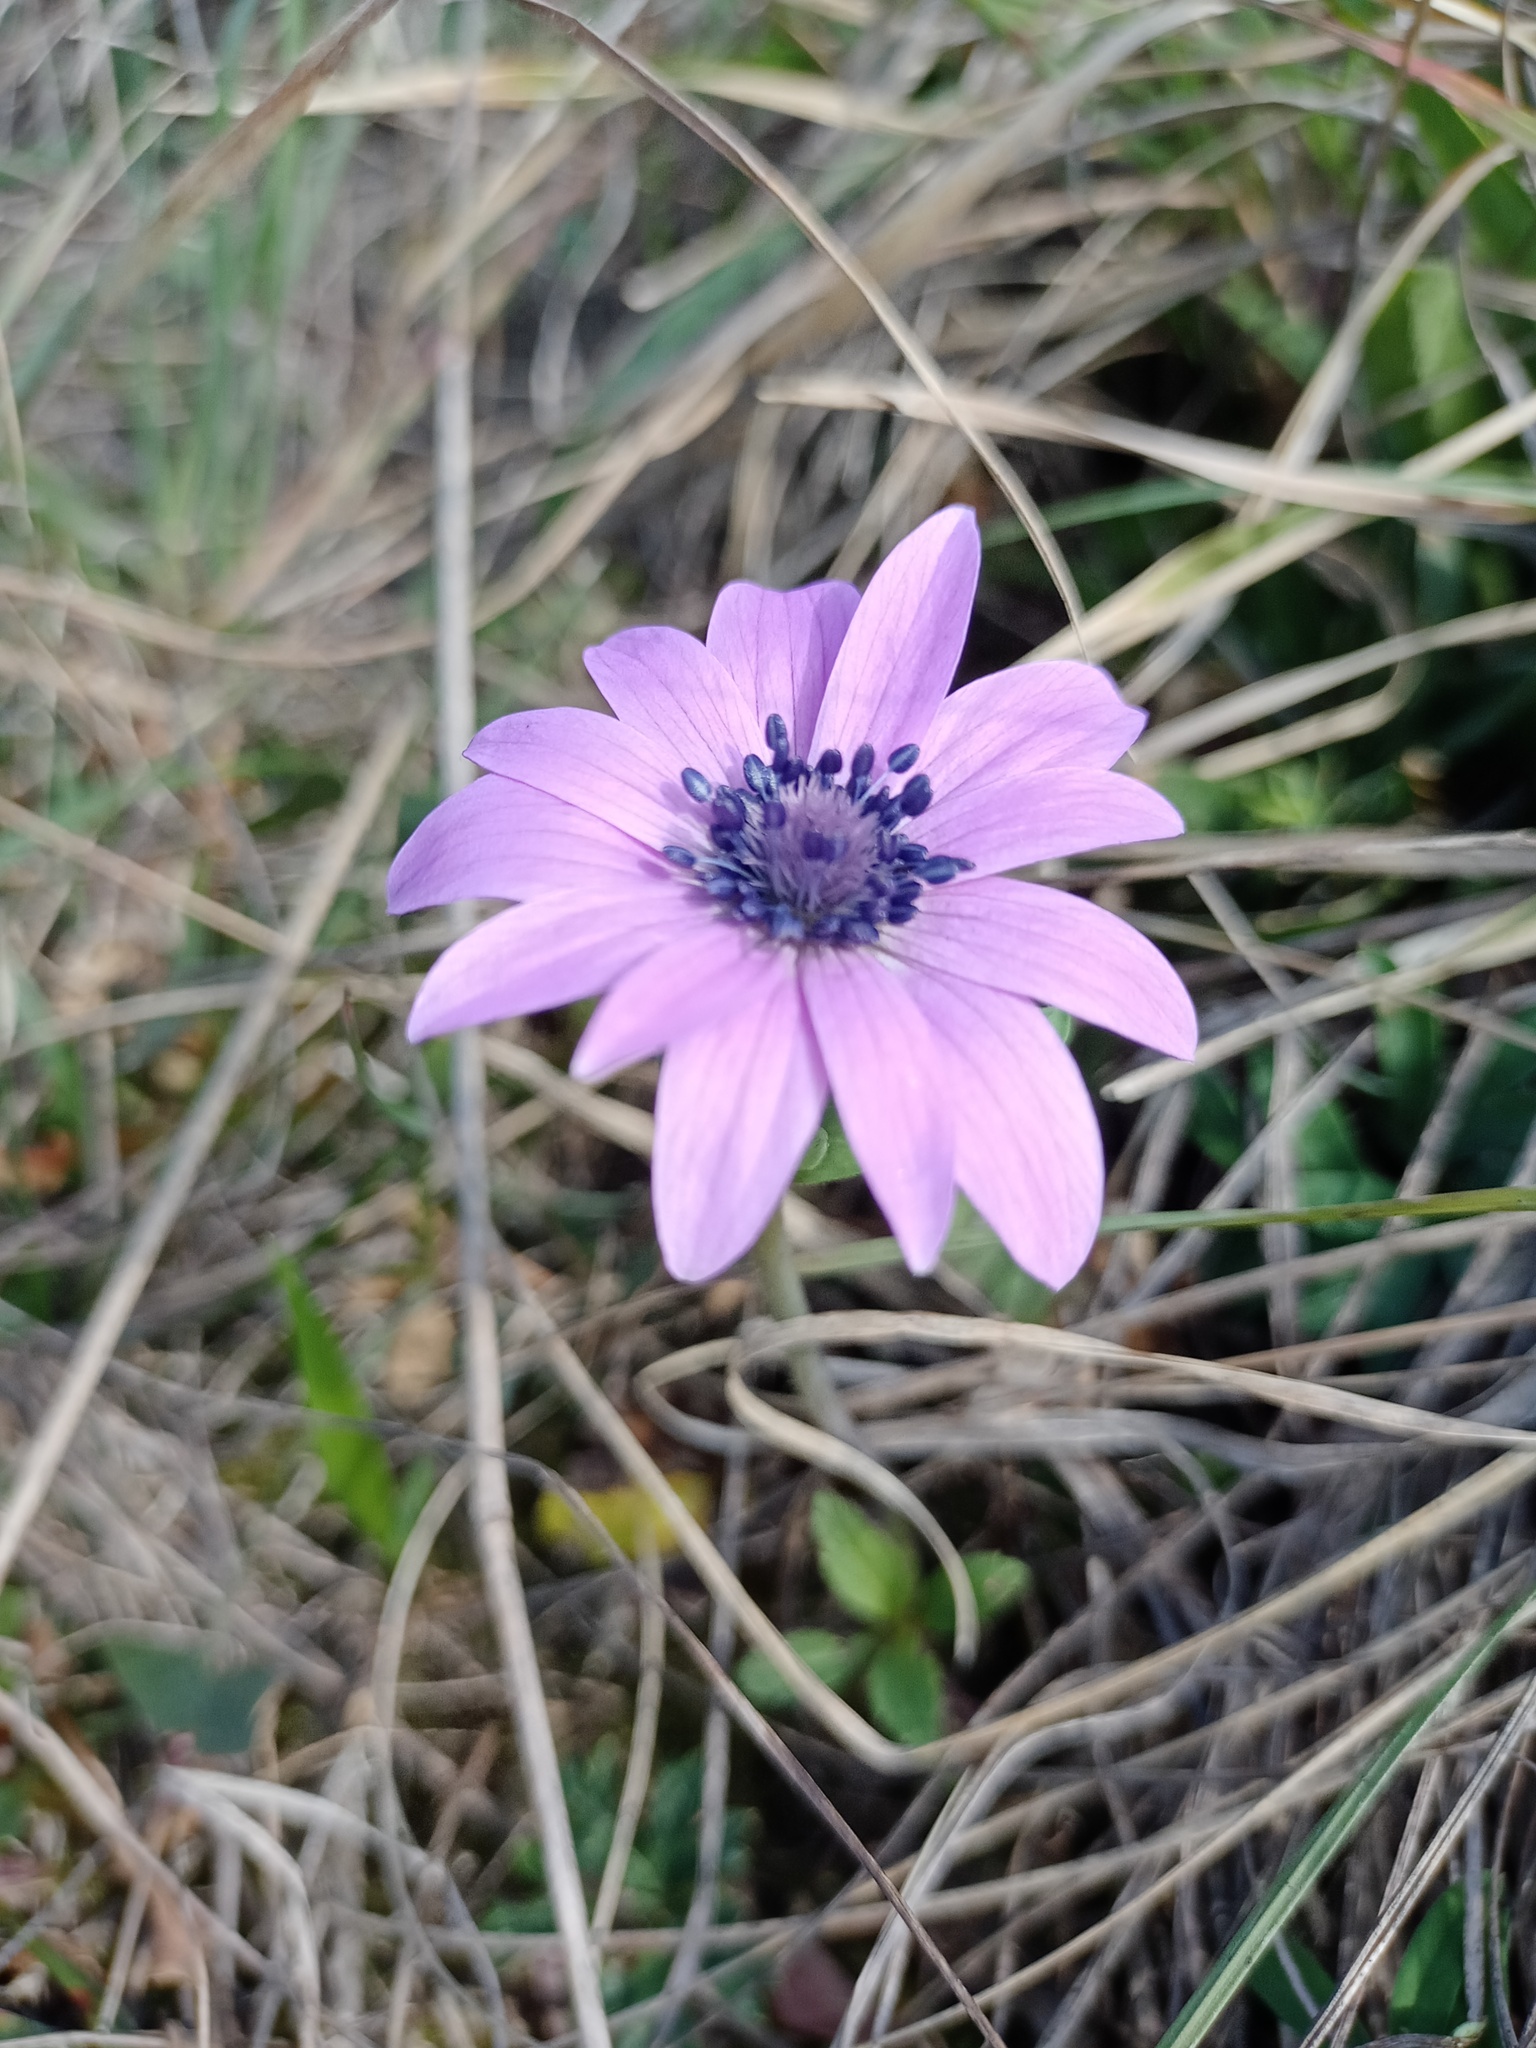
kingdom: Plantae
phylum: Tracheophyta
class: Magnoliopsida
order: Ranunculales
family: Ranunculaceae
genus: Anemone
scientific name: Anemone hortensis
